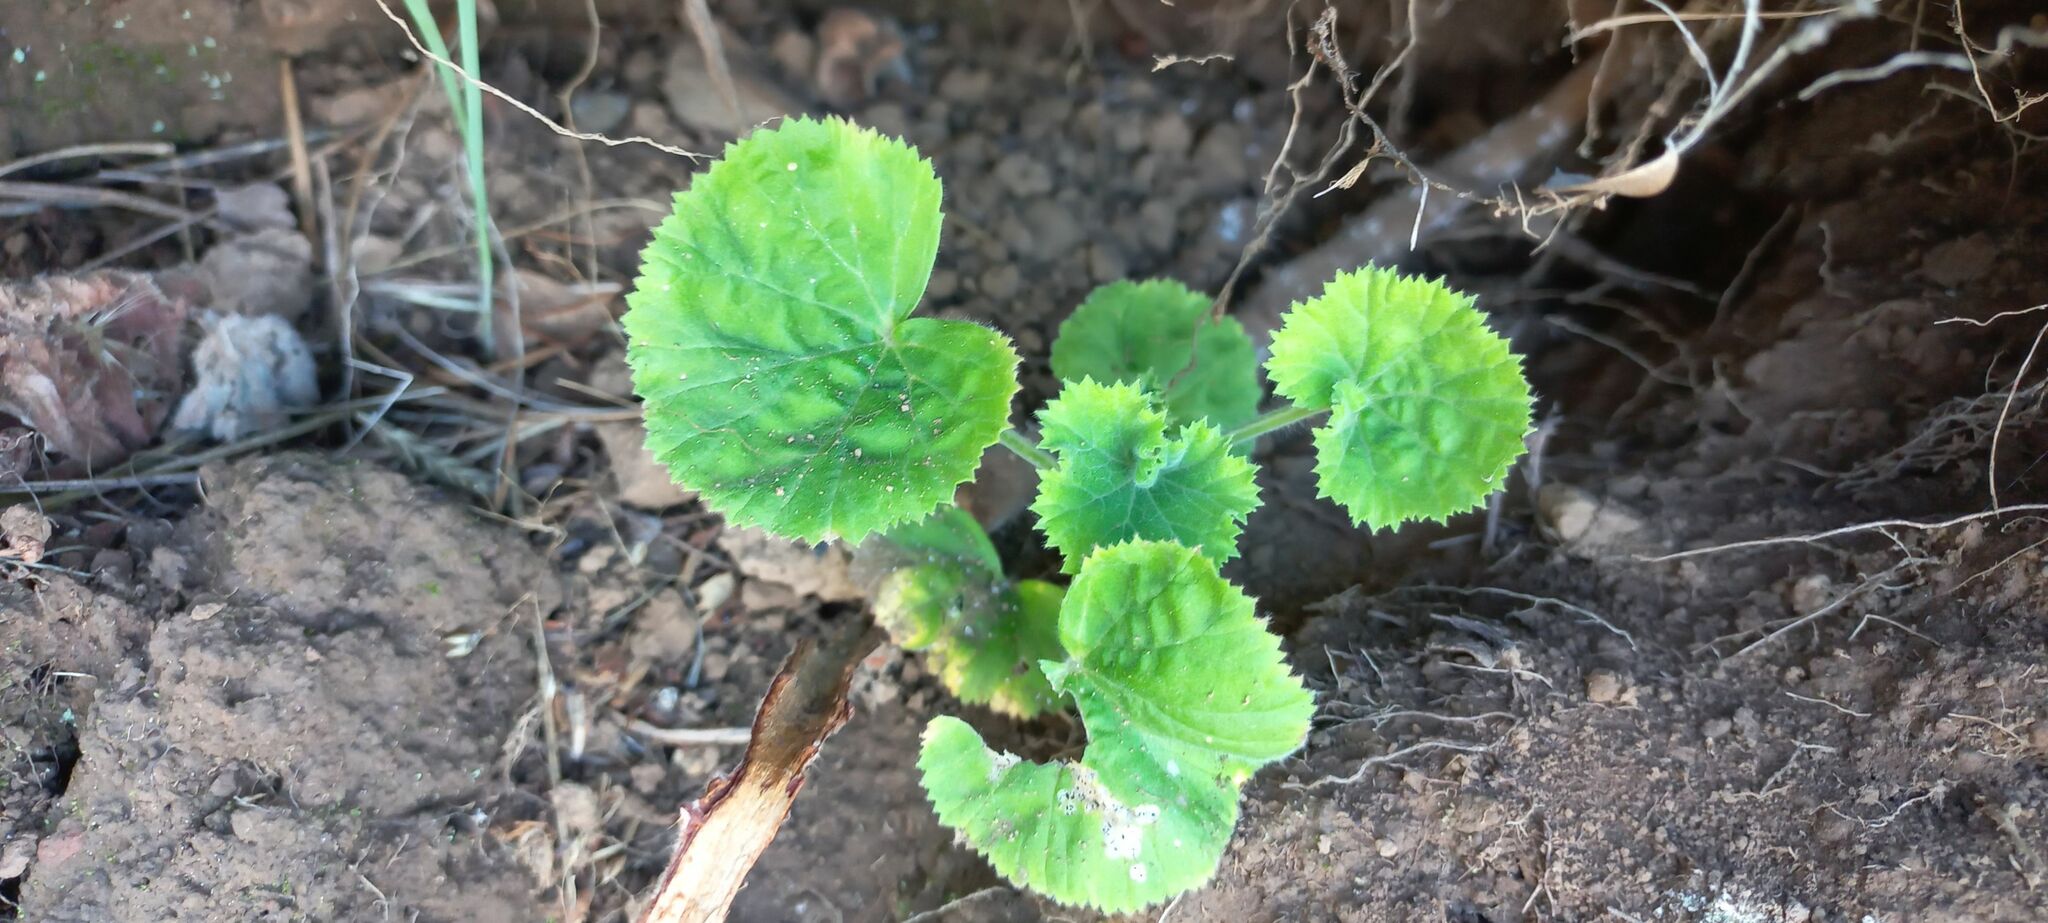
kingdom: Plantae
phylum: Tracheophyta
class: Magnoliopsida
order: Geraniales
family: Geraniaceae
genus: Pelargonium
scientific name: Pelargonium cucullatum
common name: Tree pelargonium
